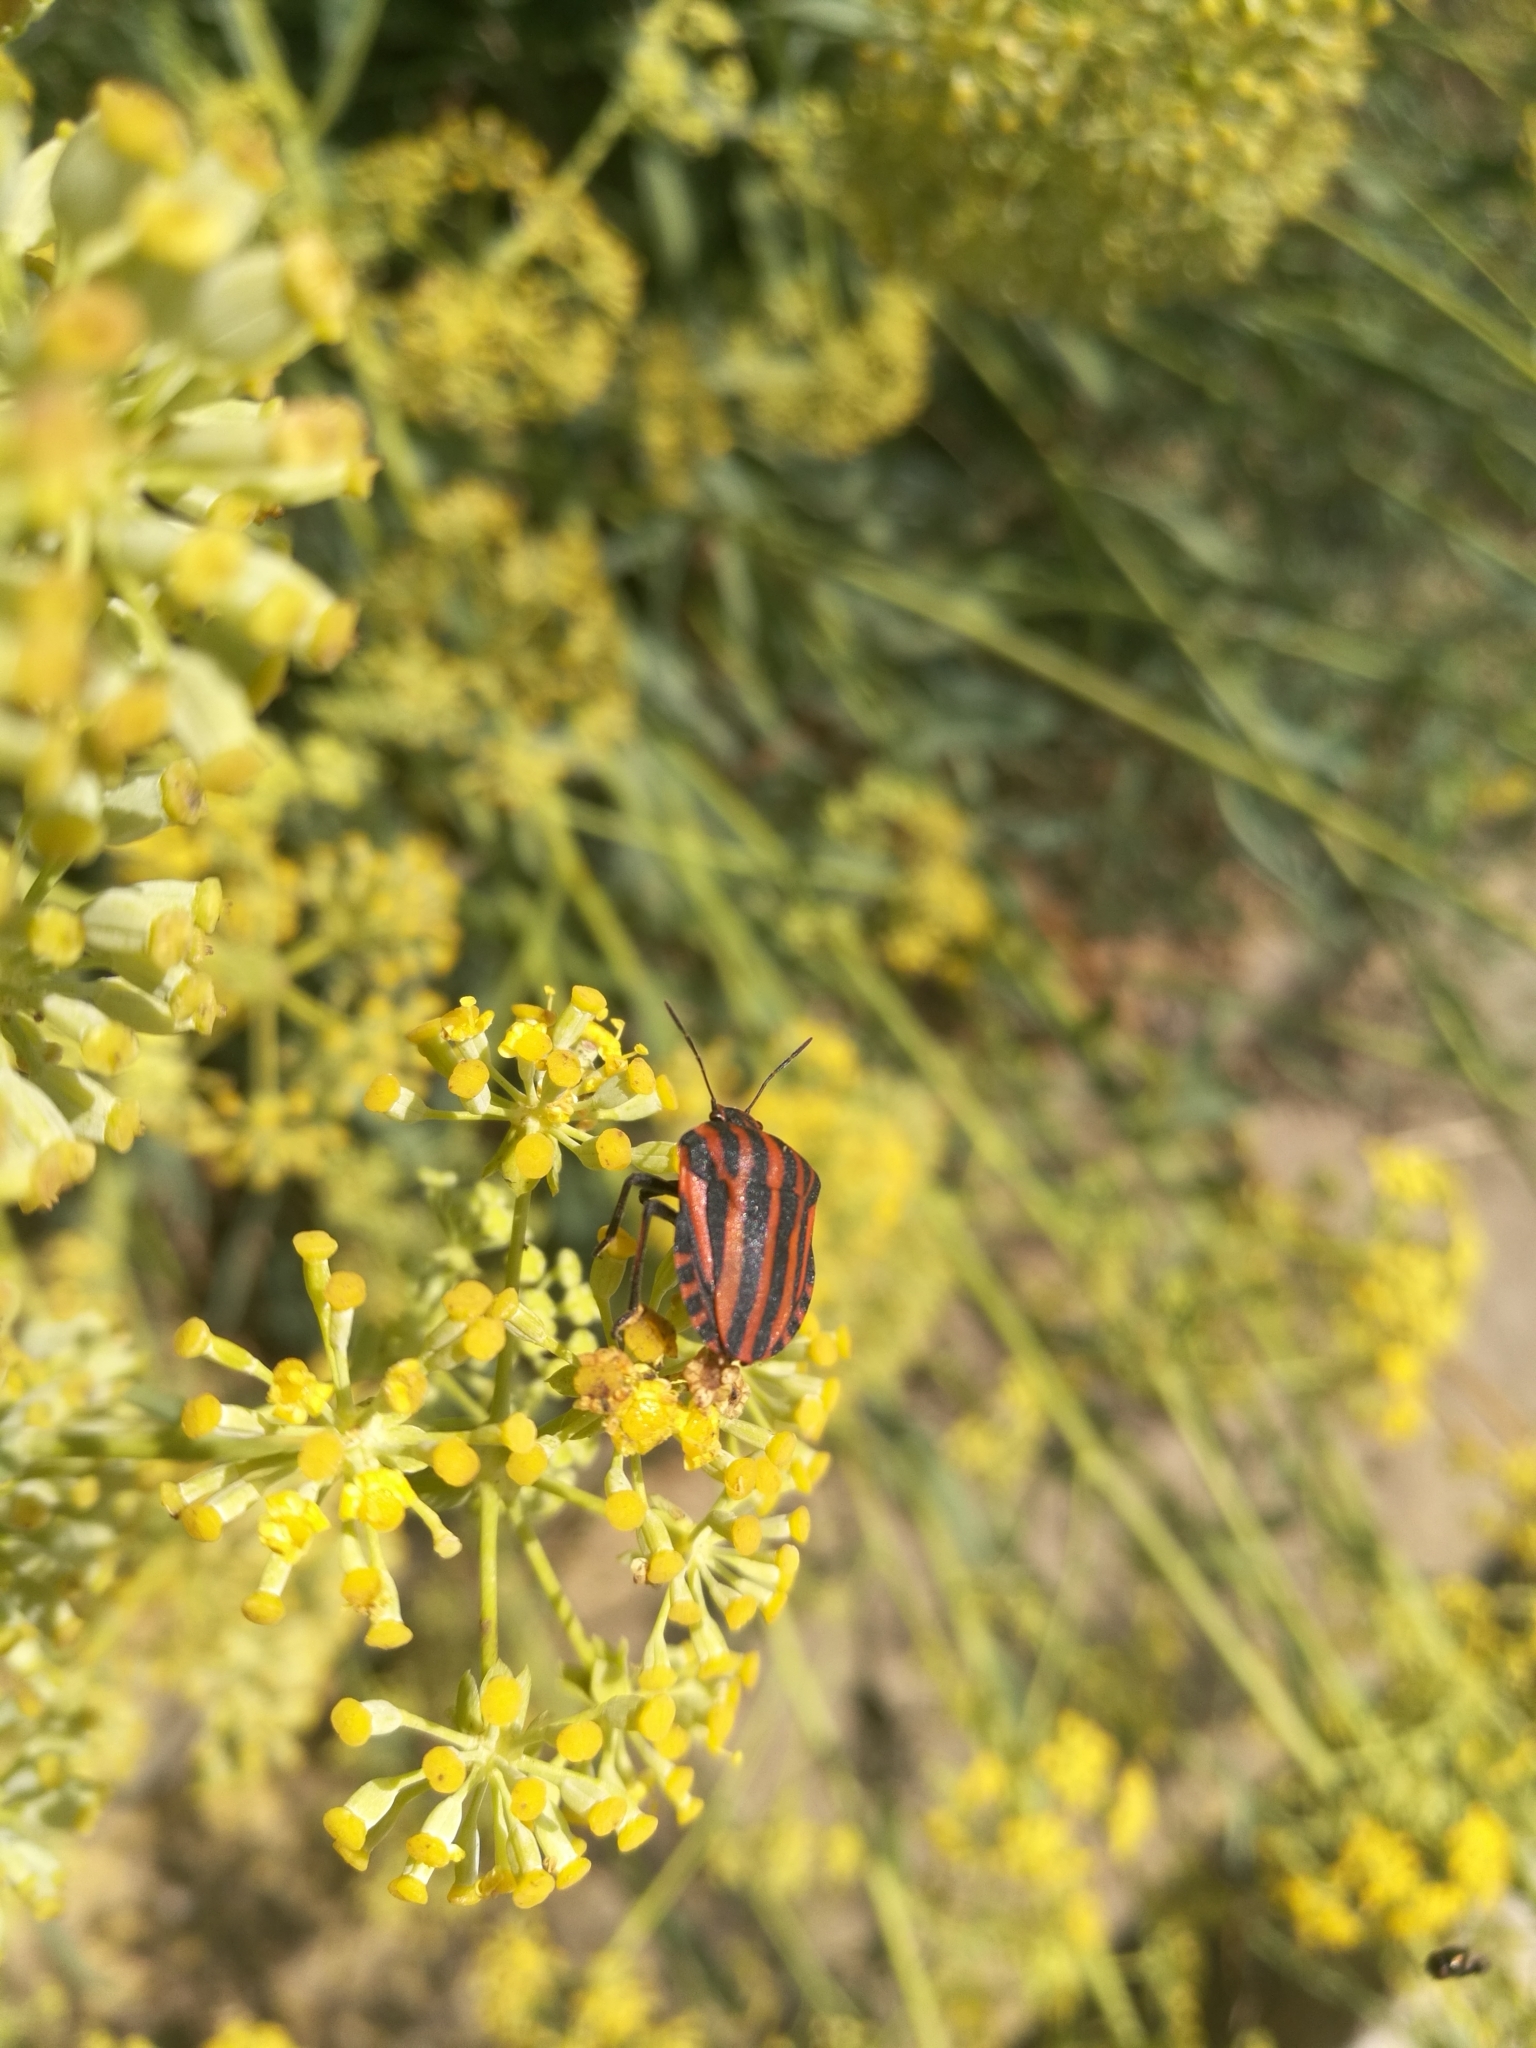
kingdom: Animalia
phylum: Arthropoda
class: Insecta
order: Hemiptera
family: Pentatomidae
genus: Graphosoma
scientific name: Graphosoma italicum
